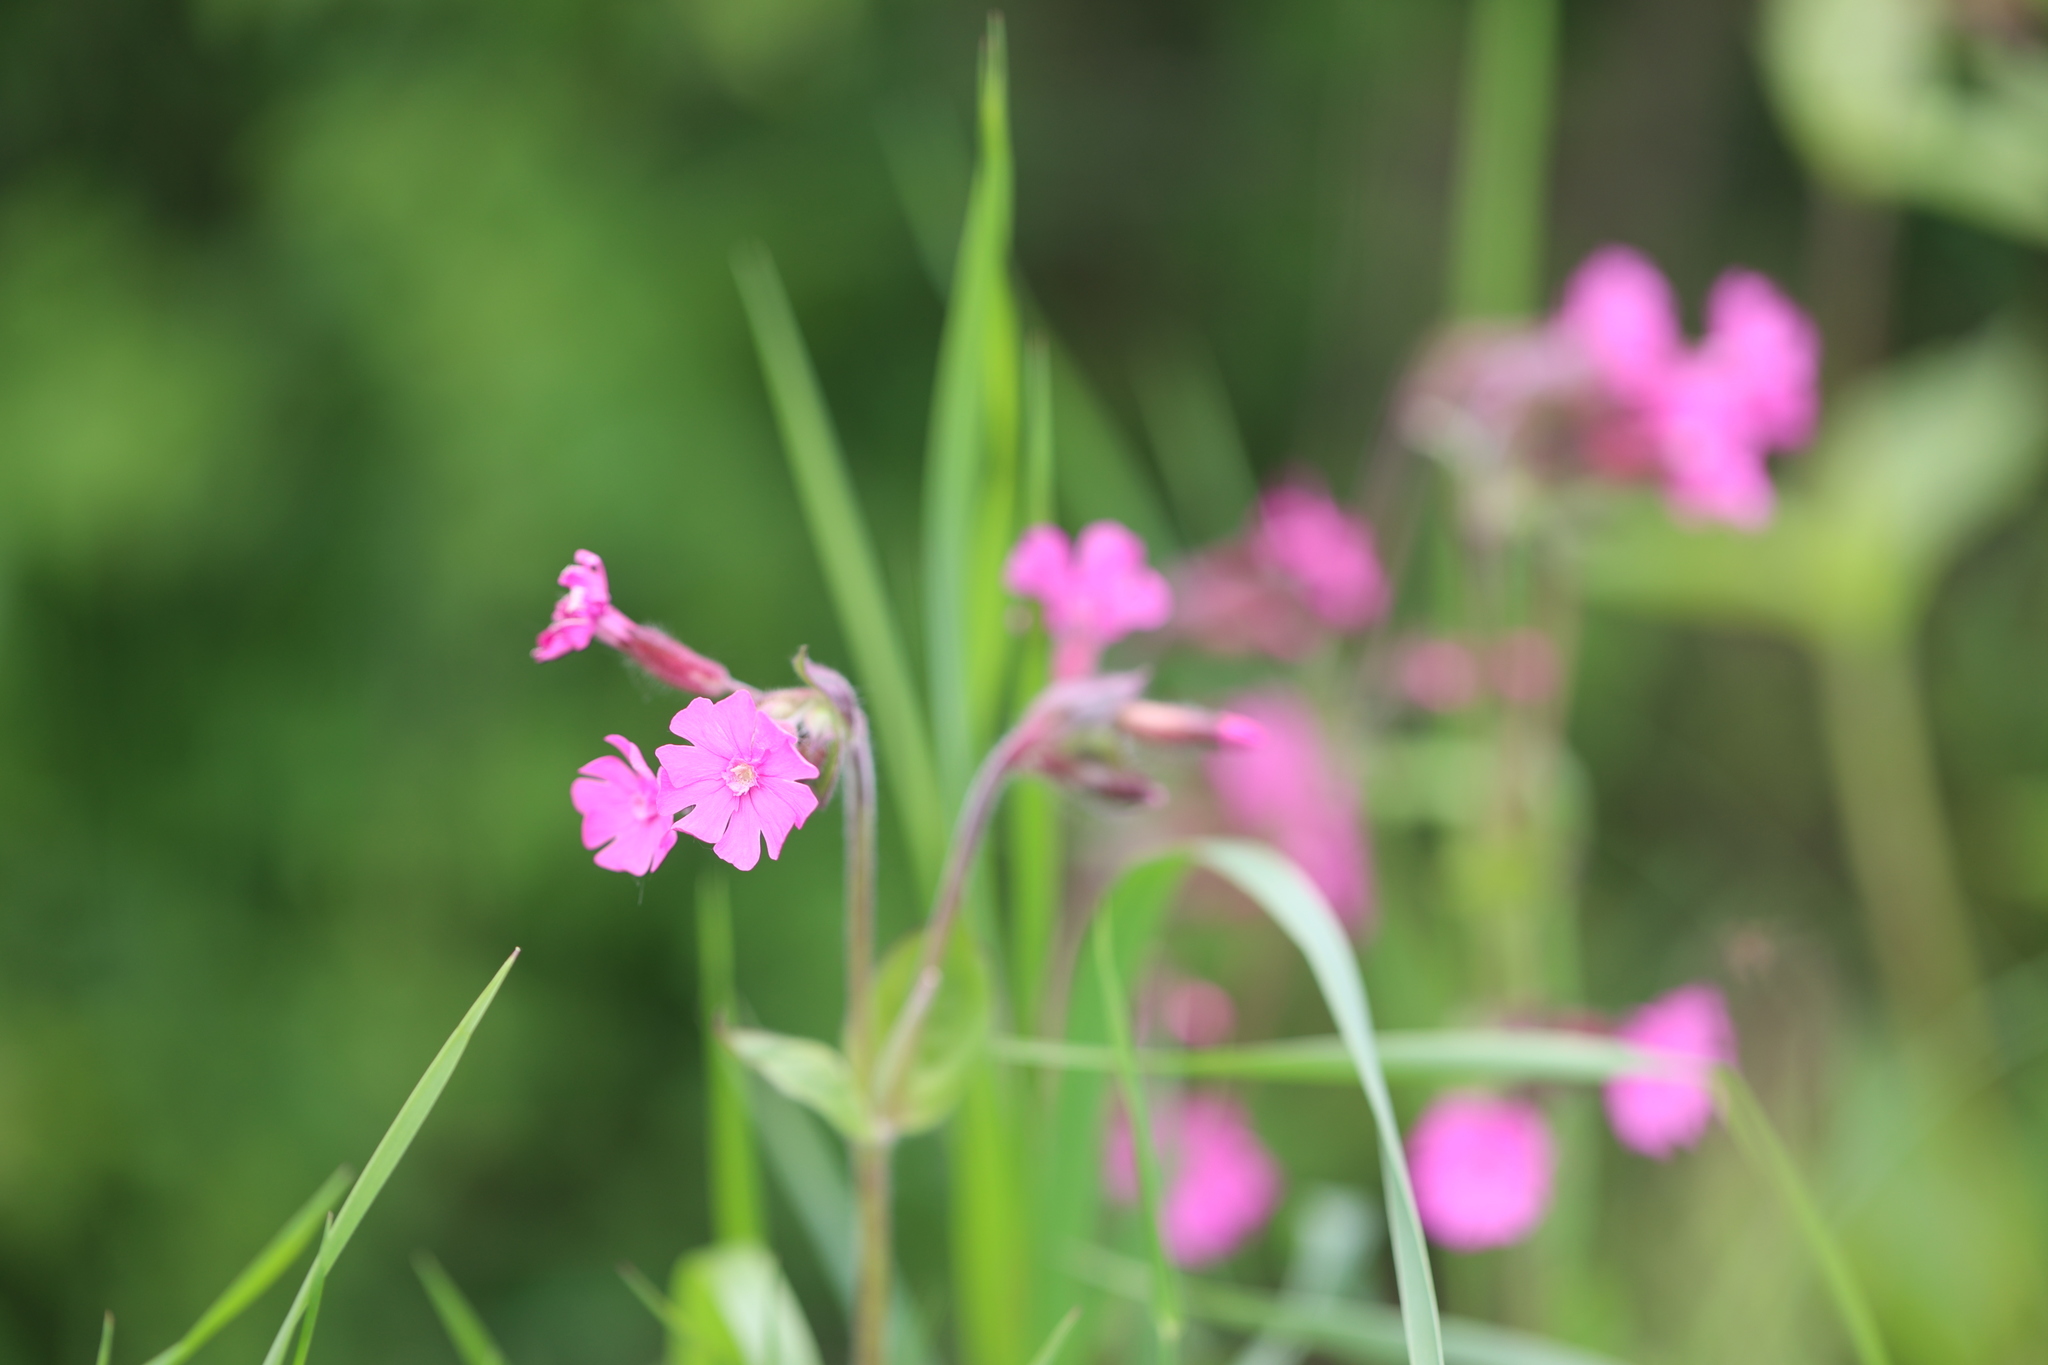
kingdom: Plantae
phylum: Tracheophyta
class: Magnoliopsida
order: Caryophyllales
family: Caryophyllaceae
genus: Silene
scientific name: Silene dioica
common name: Red campion
